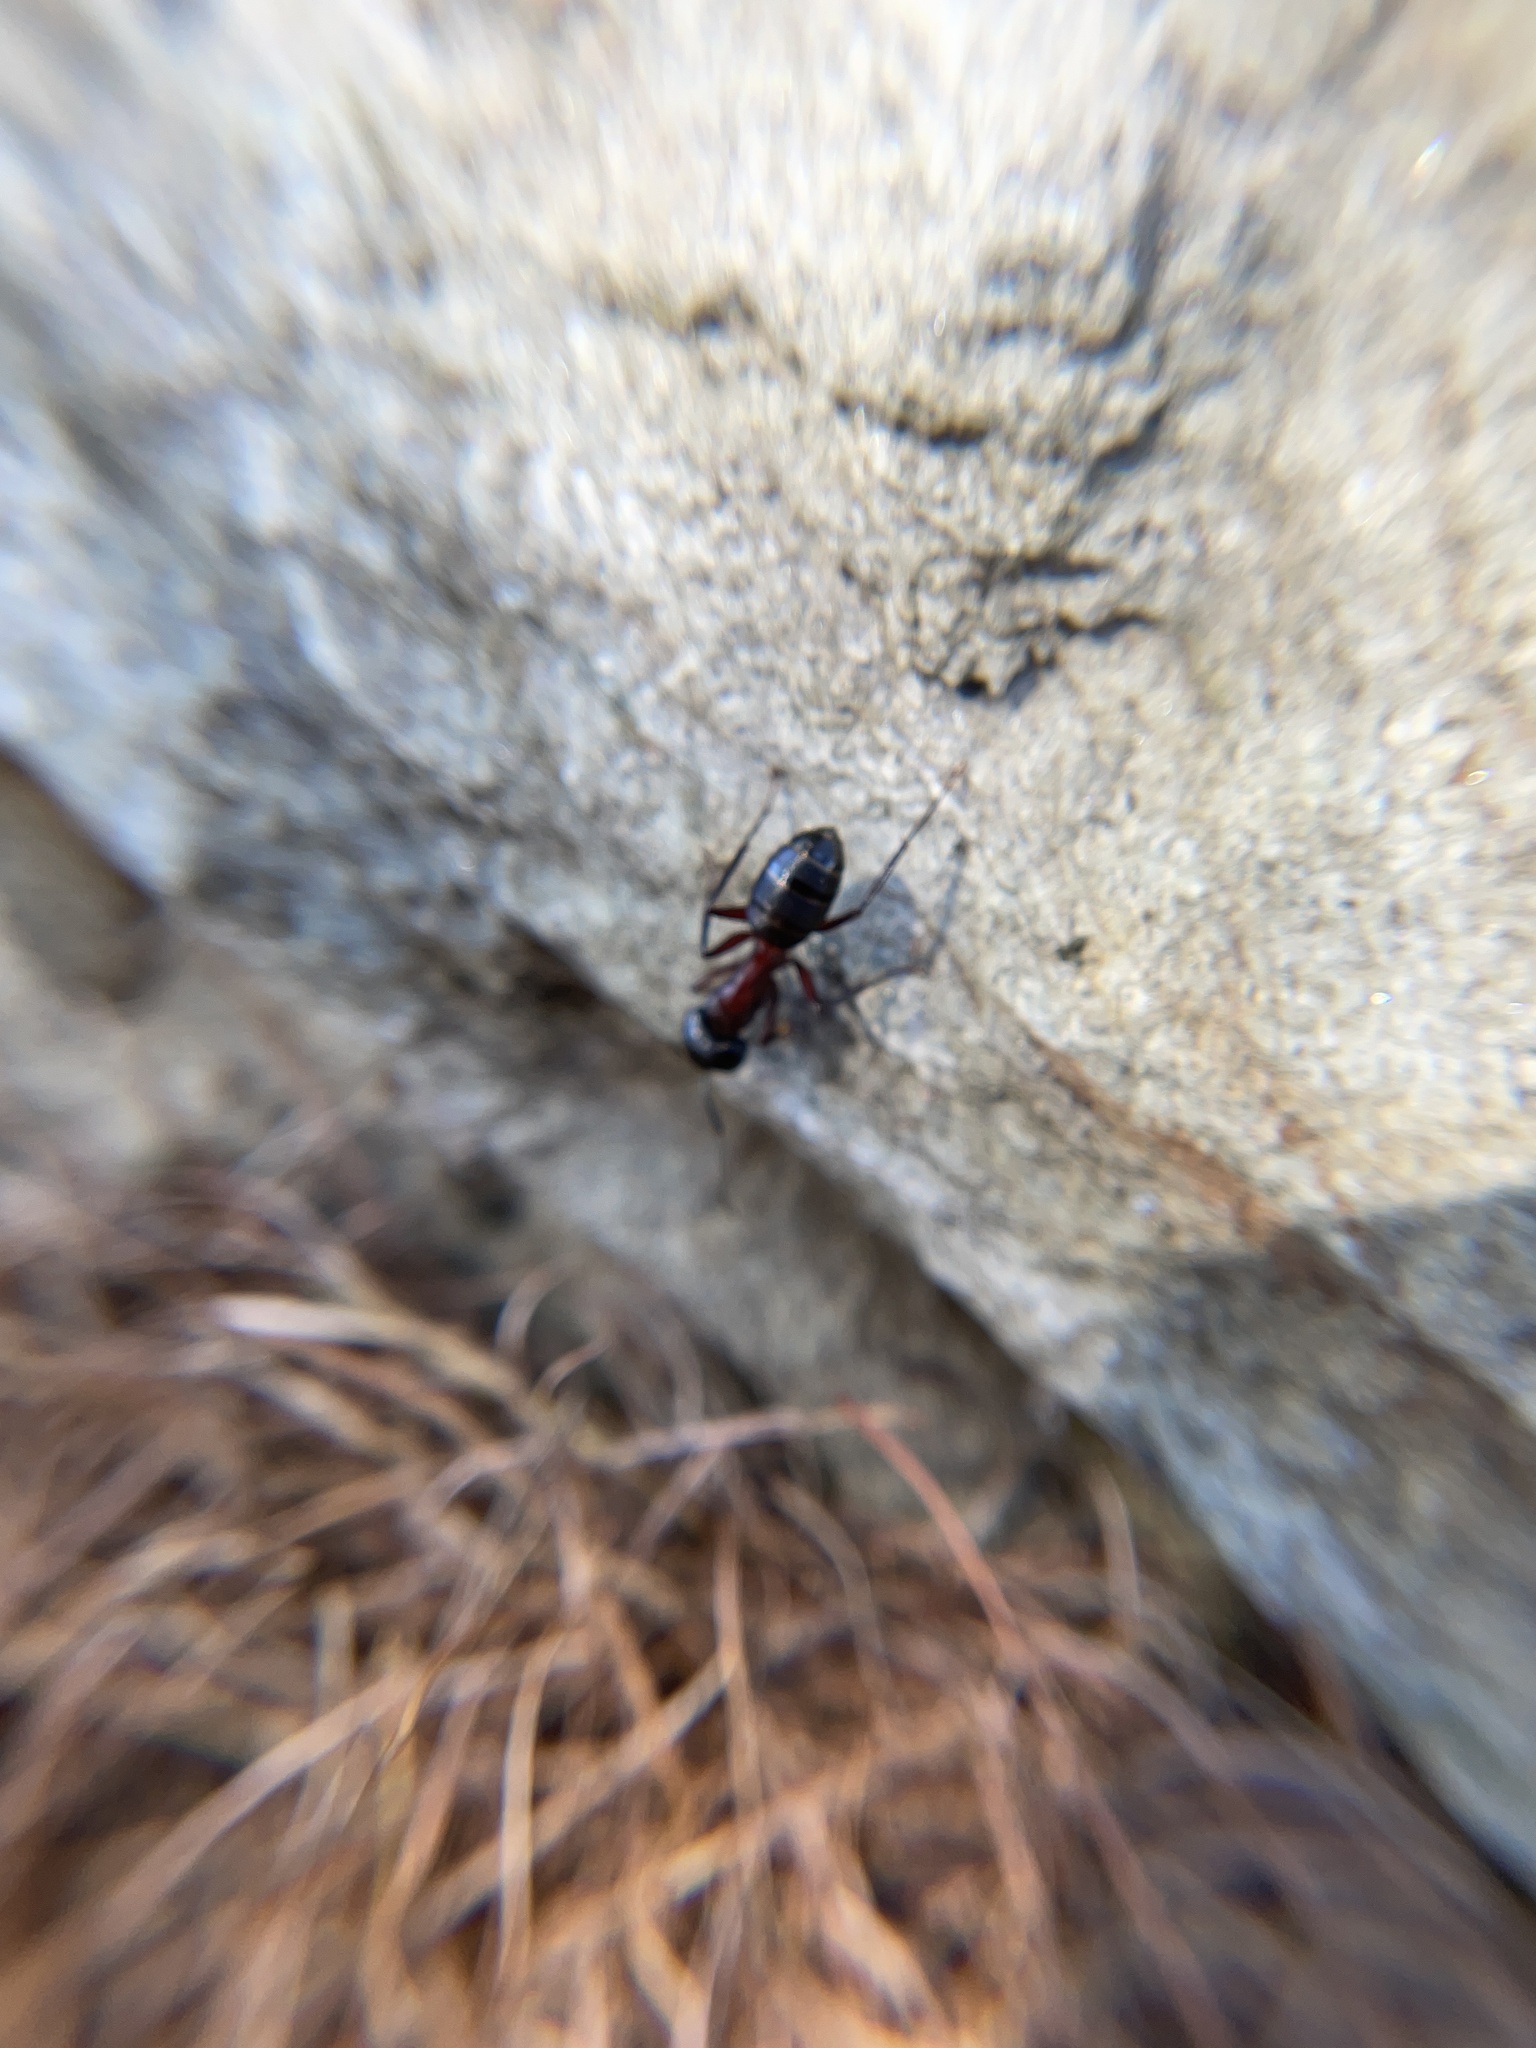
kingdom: Animalia
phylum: Arthropoda
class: Insecta
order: Hymenoptera
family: Formicidae
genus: Camponotus
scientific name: Camponotus ligniperdus
